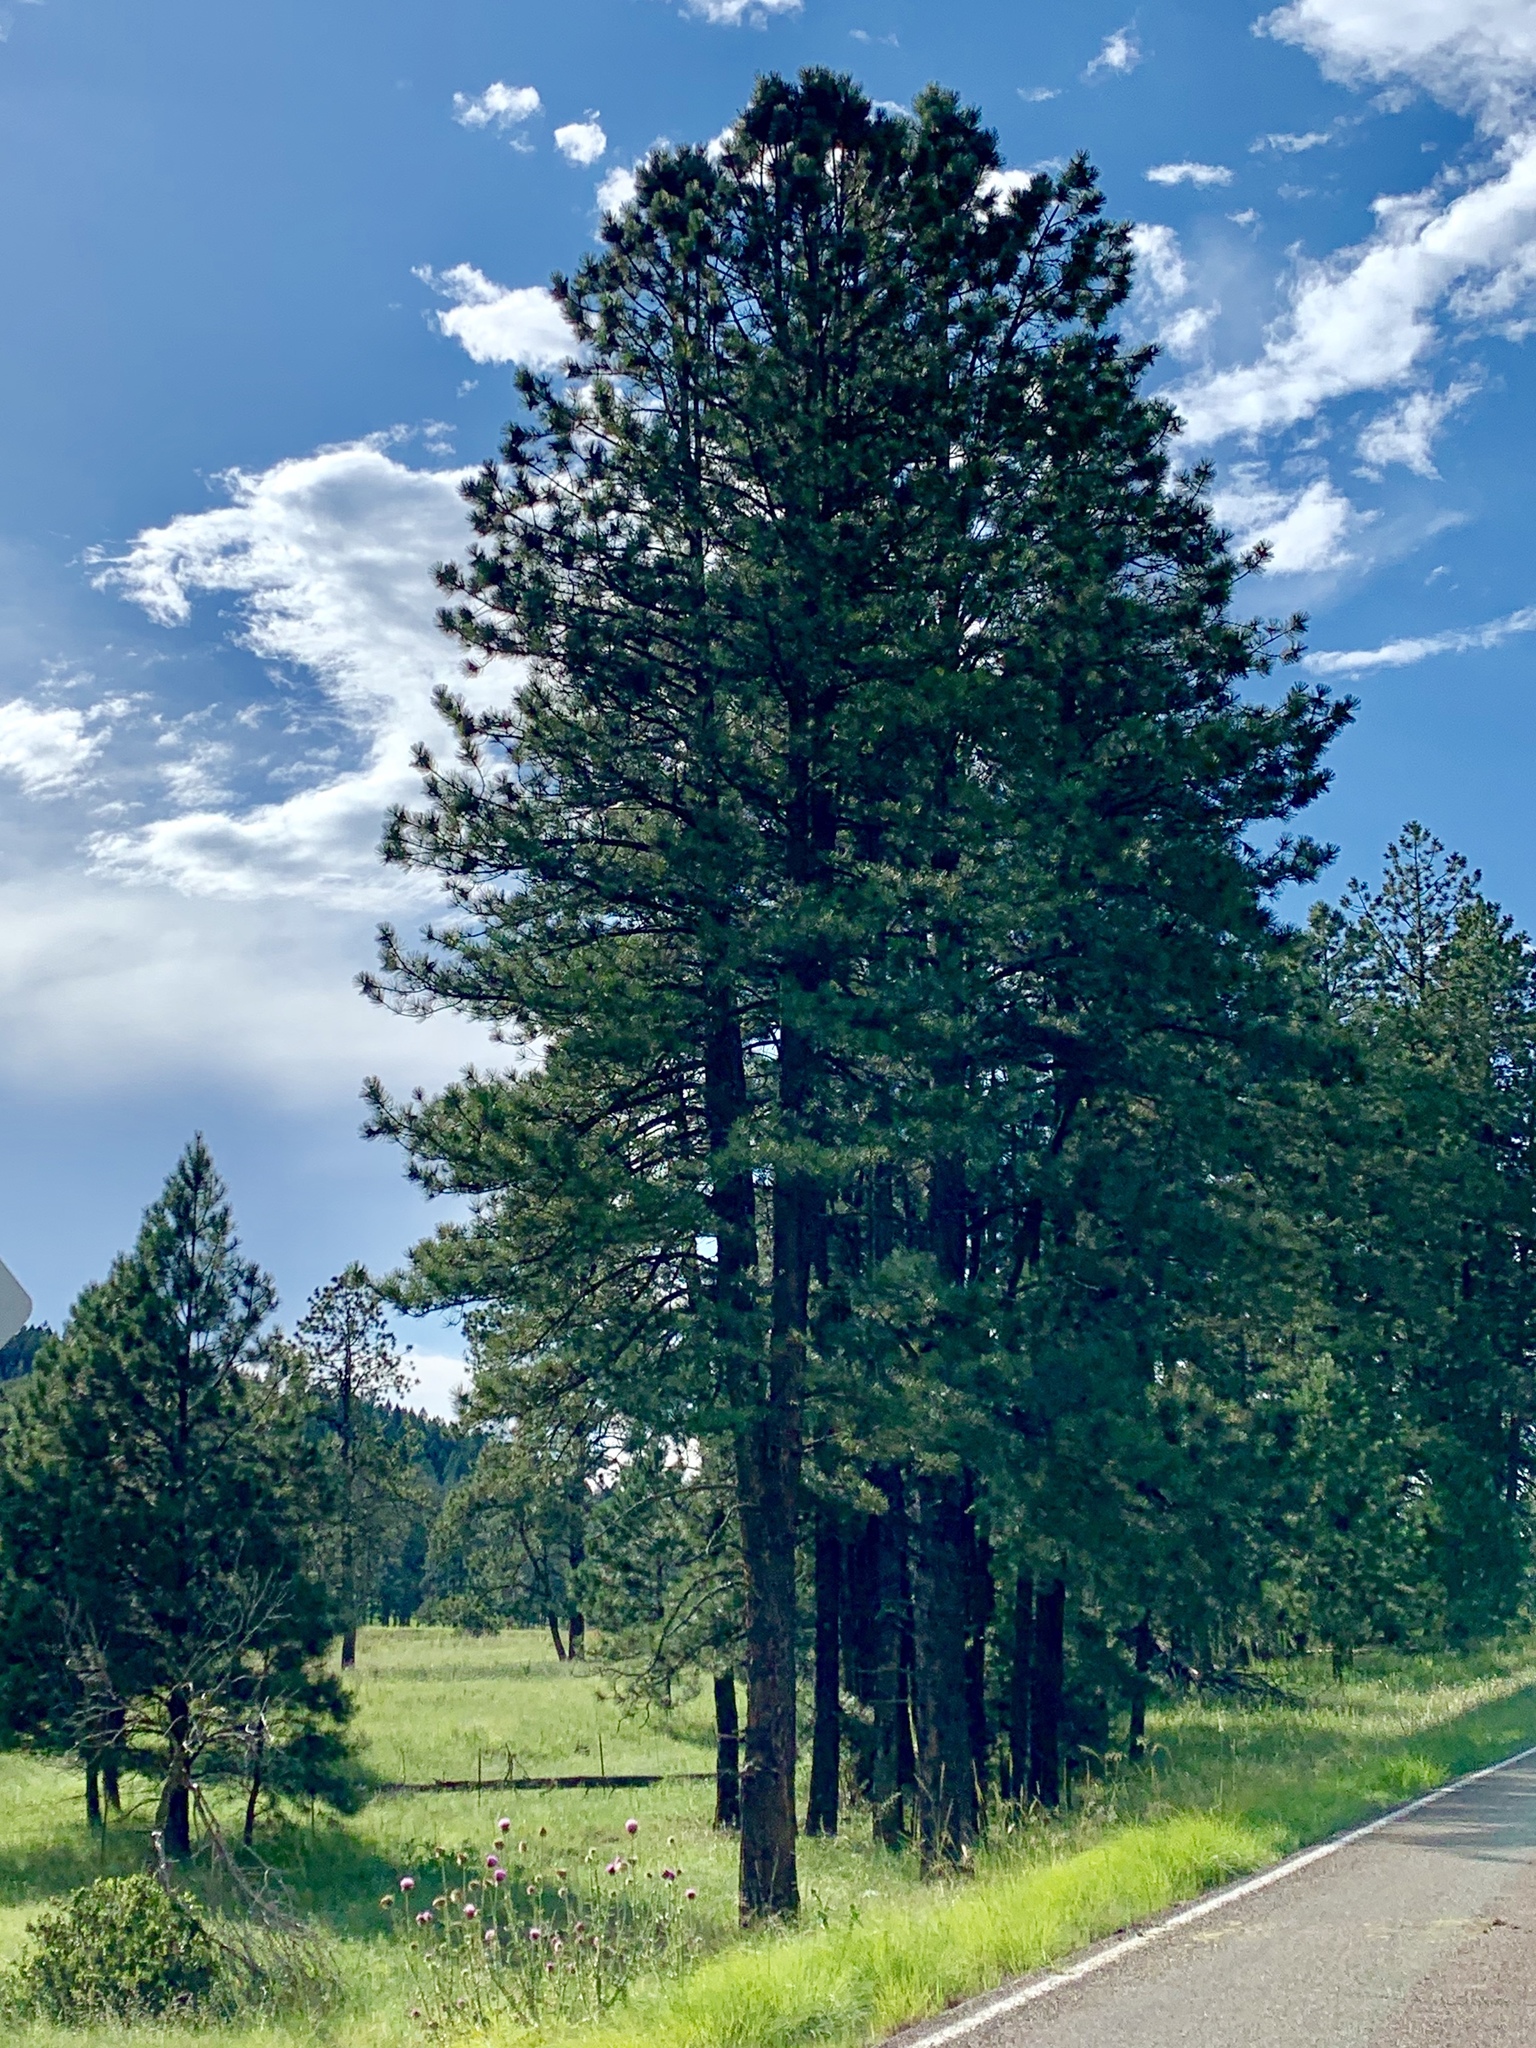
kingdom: Plantae
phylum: Tracheophyta
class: Pinopsida
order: Pinales
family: Pinaceae
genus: Pinus
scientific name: Pinus ponderosa
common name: Western yellow-pine
